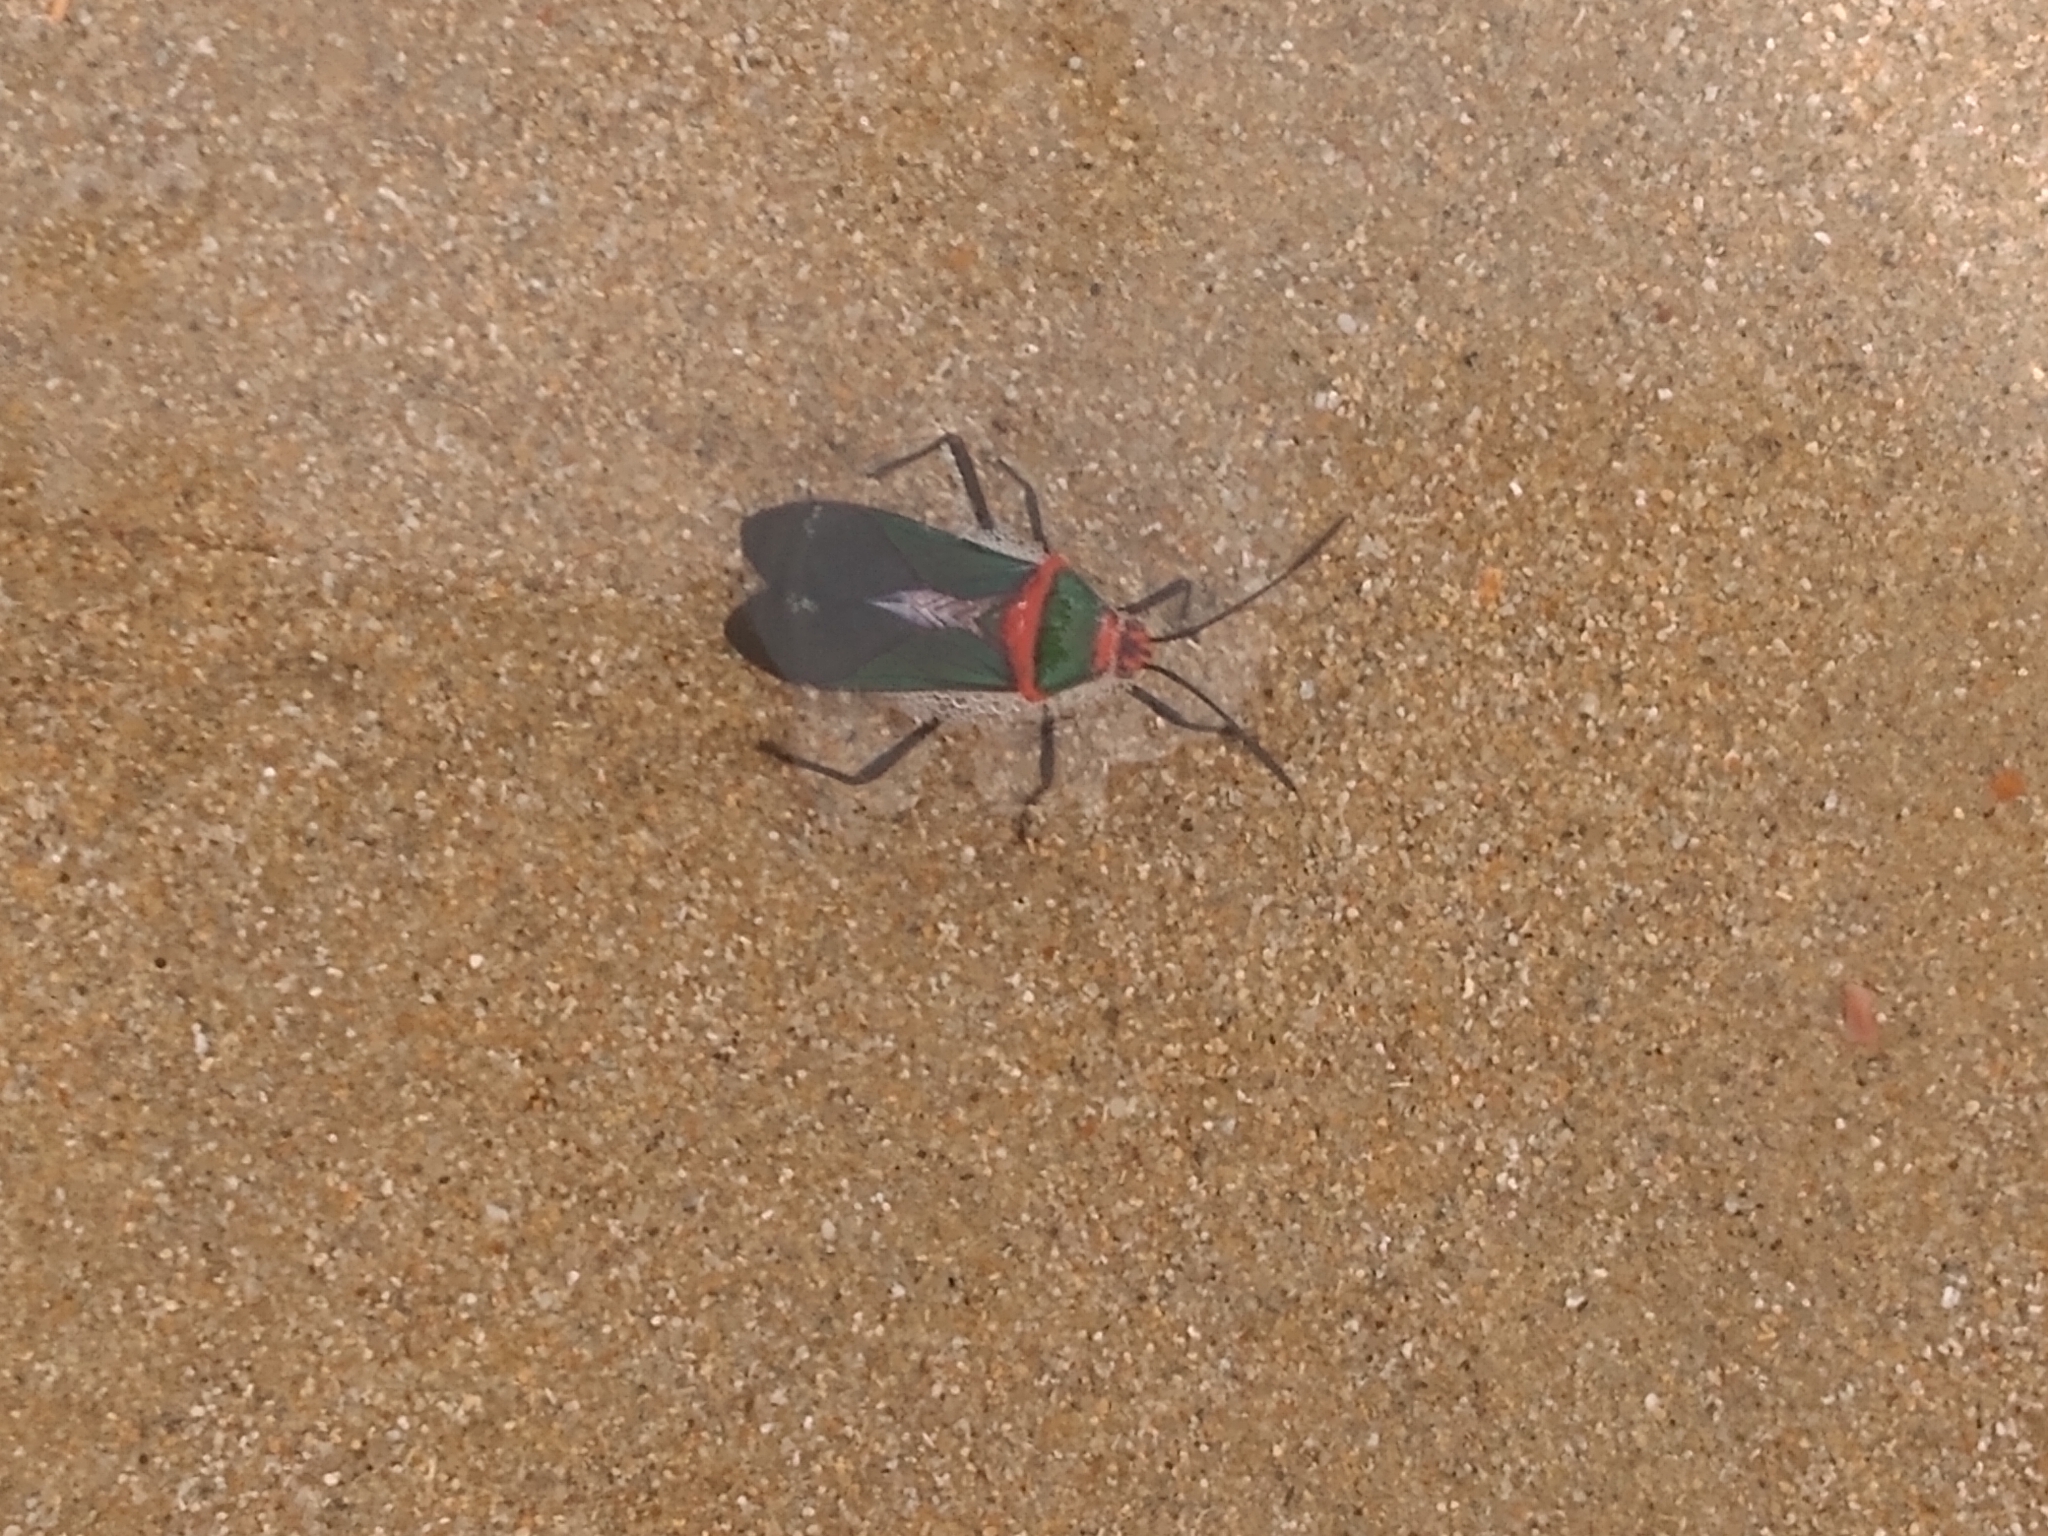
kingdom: Animalia
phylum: Arthropoda
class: Insecta
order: Hemiptera
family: Coreidae
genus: Sphictyrtus
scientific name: Sphictyrtus chrysis
